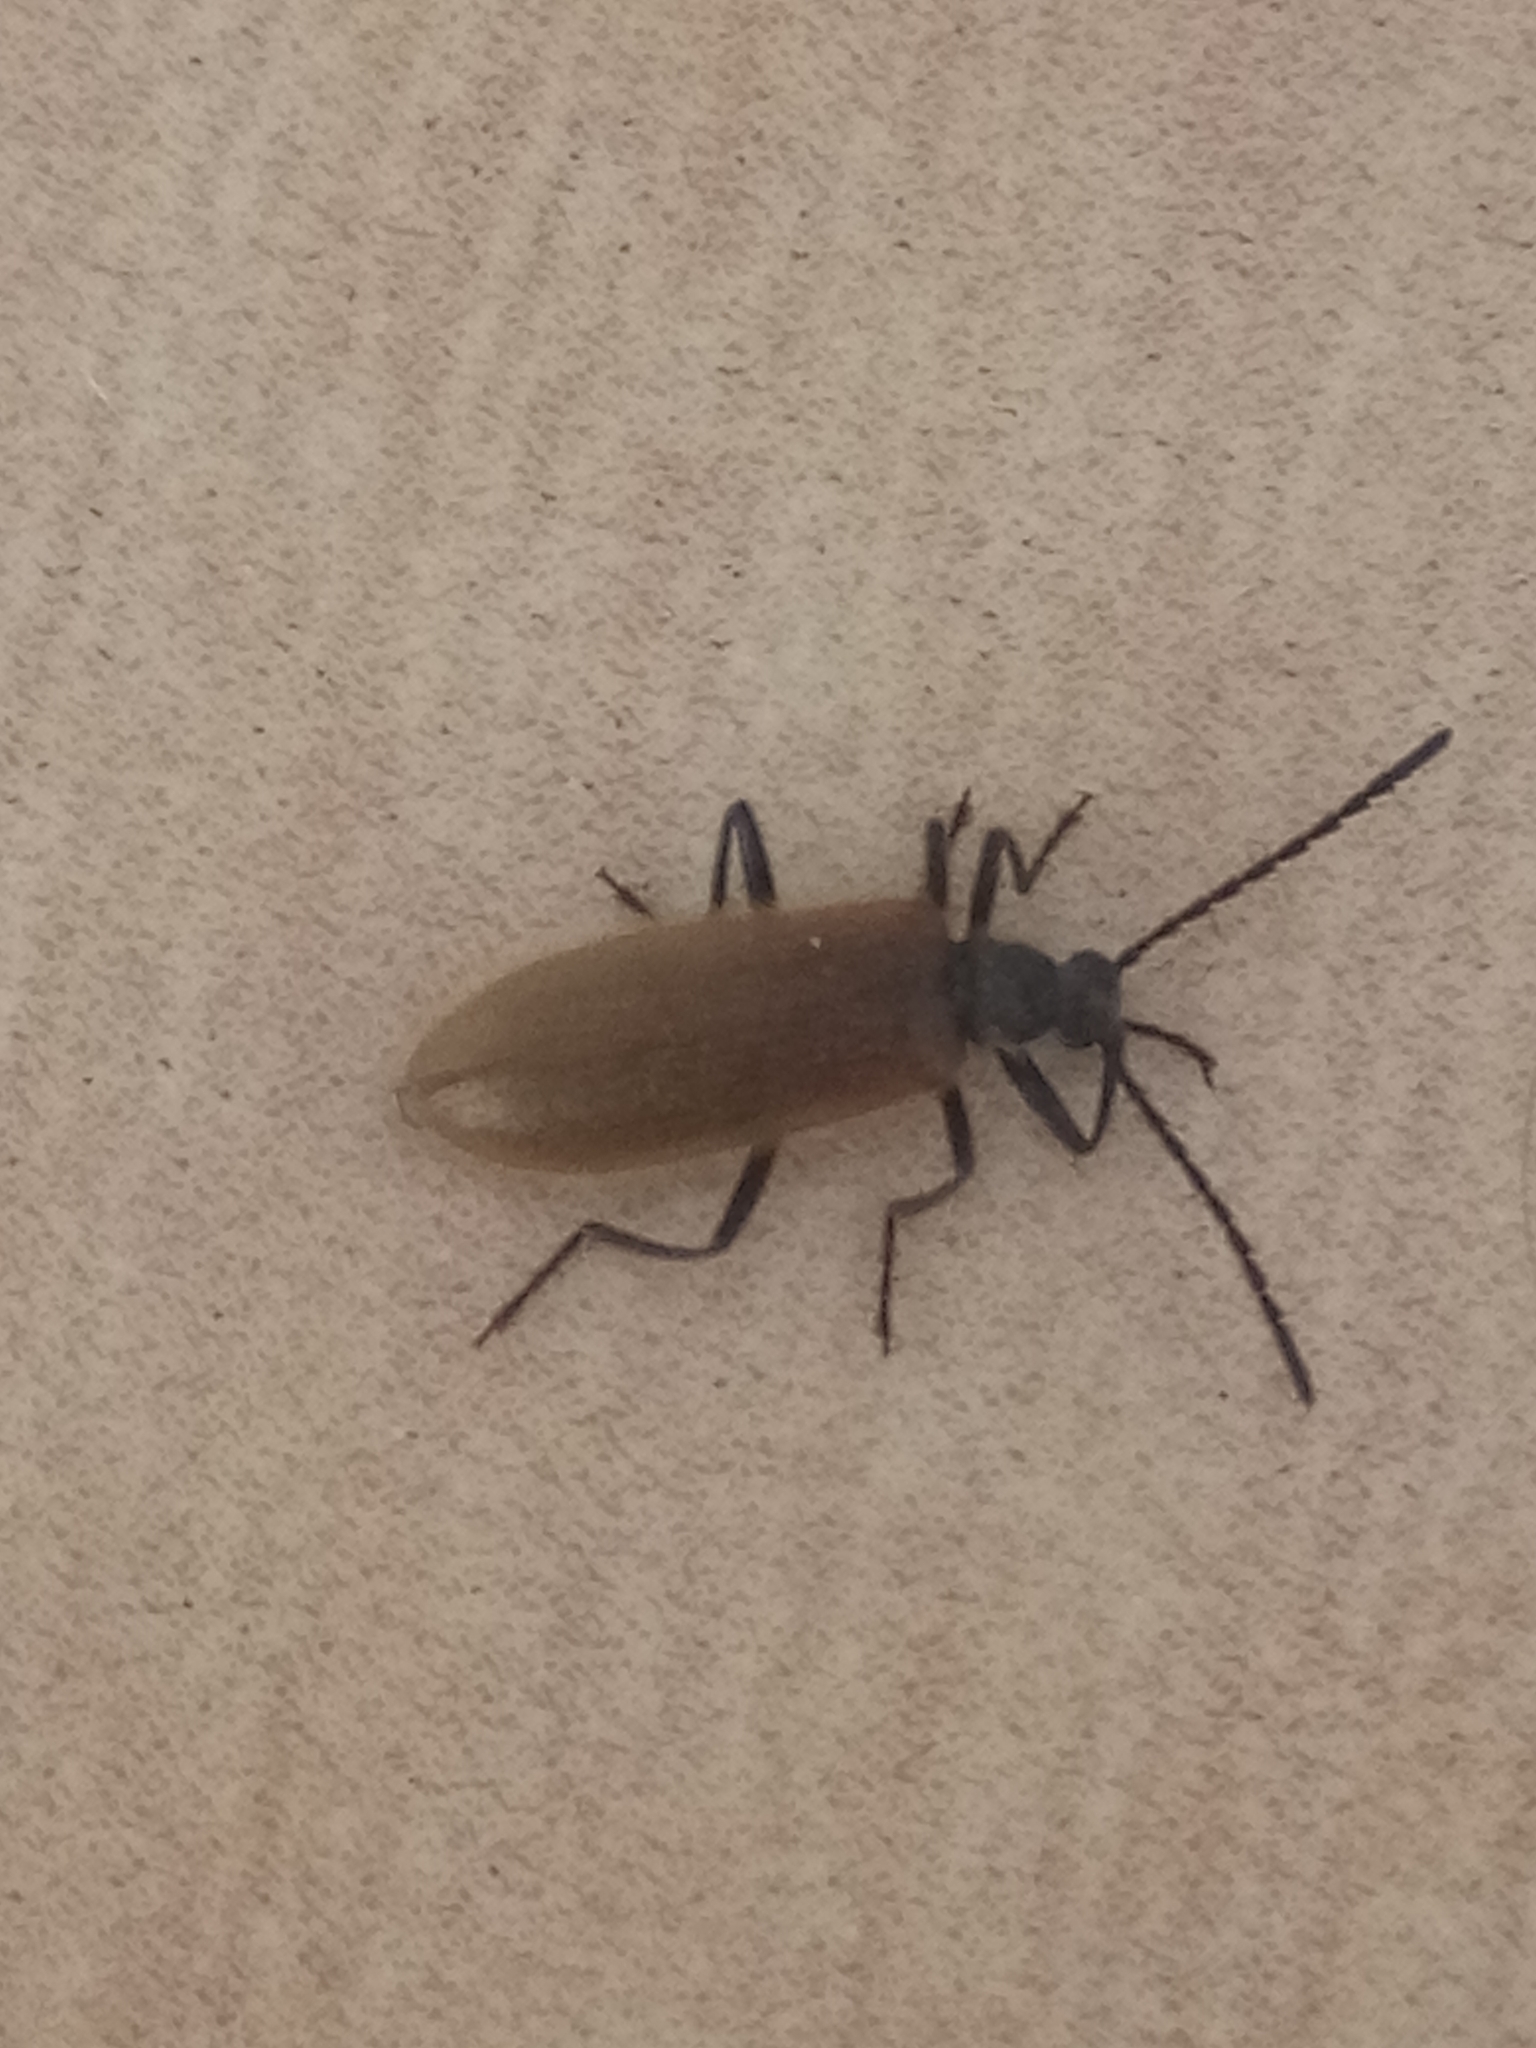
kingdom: Animalia
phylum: Arthropoda
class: Insecta
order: Coleoptera
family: Tenebrionidae
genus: Lagria
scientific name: Lagria hirta
